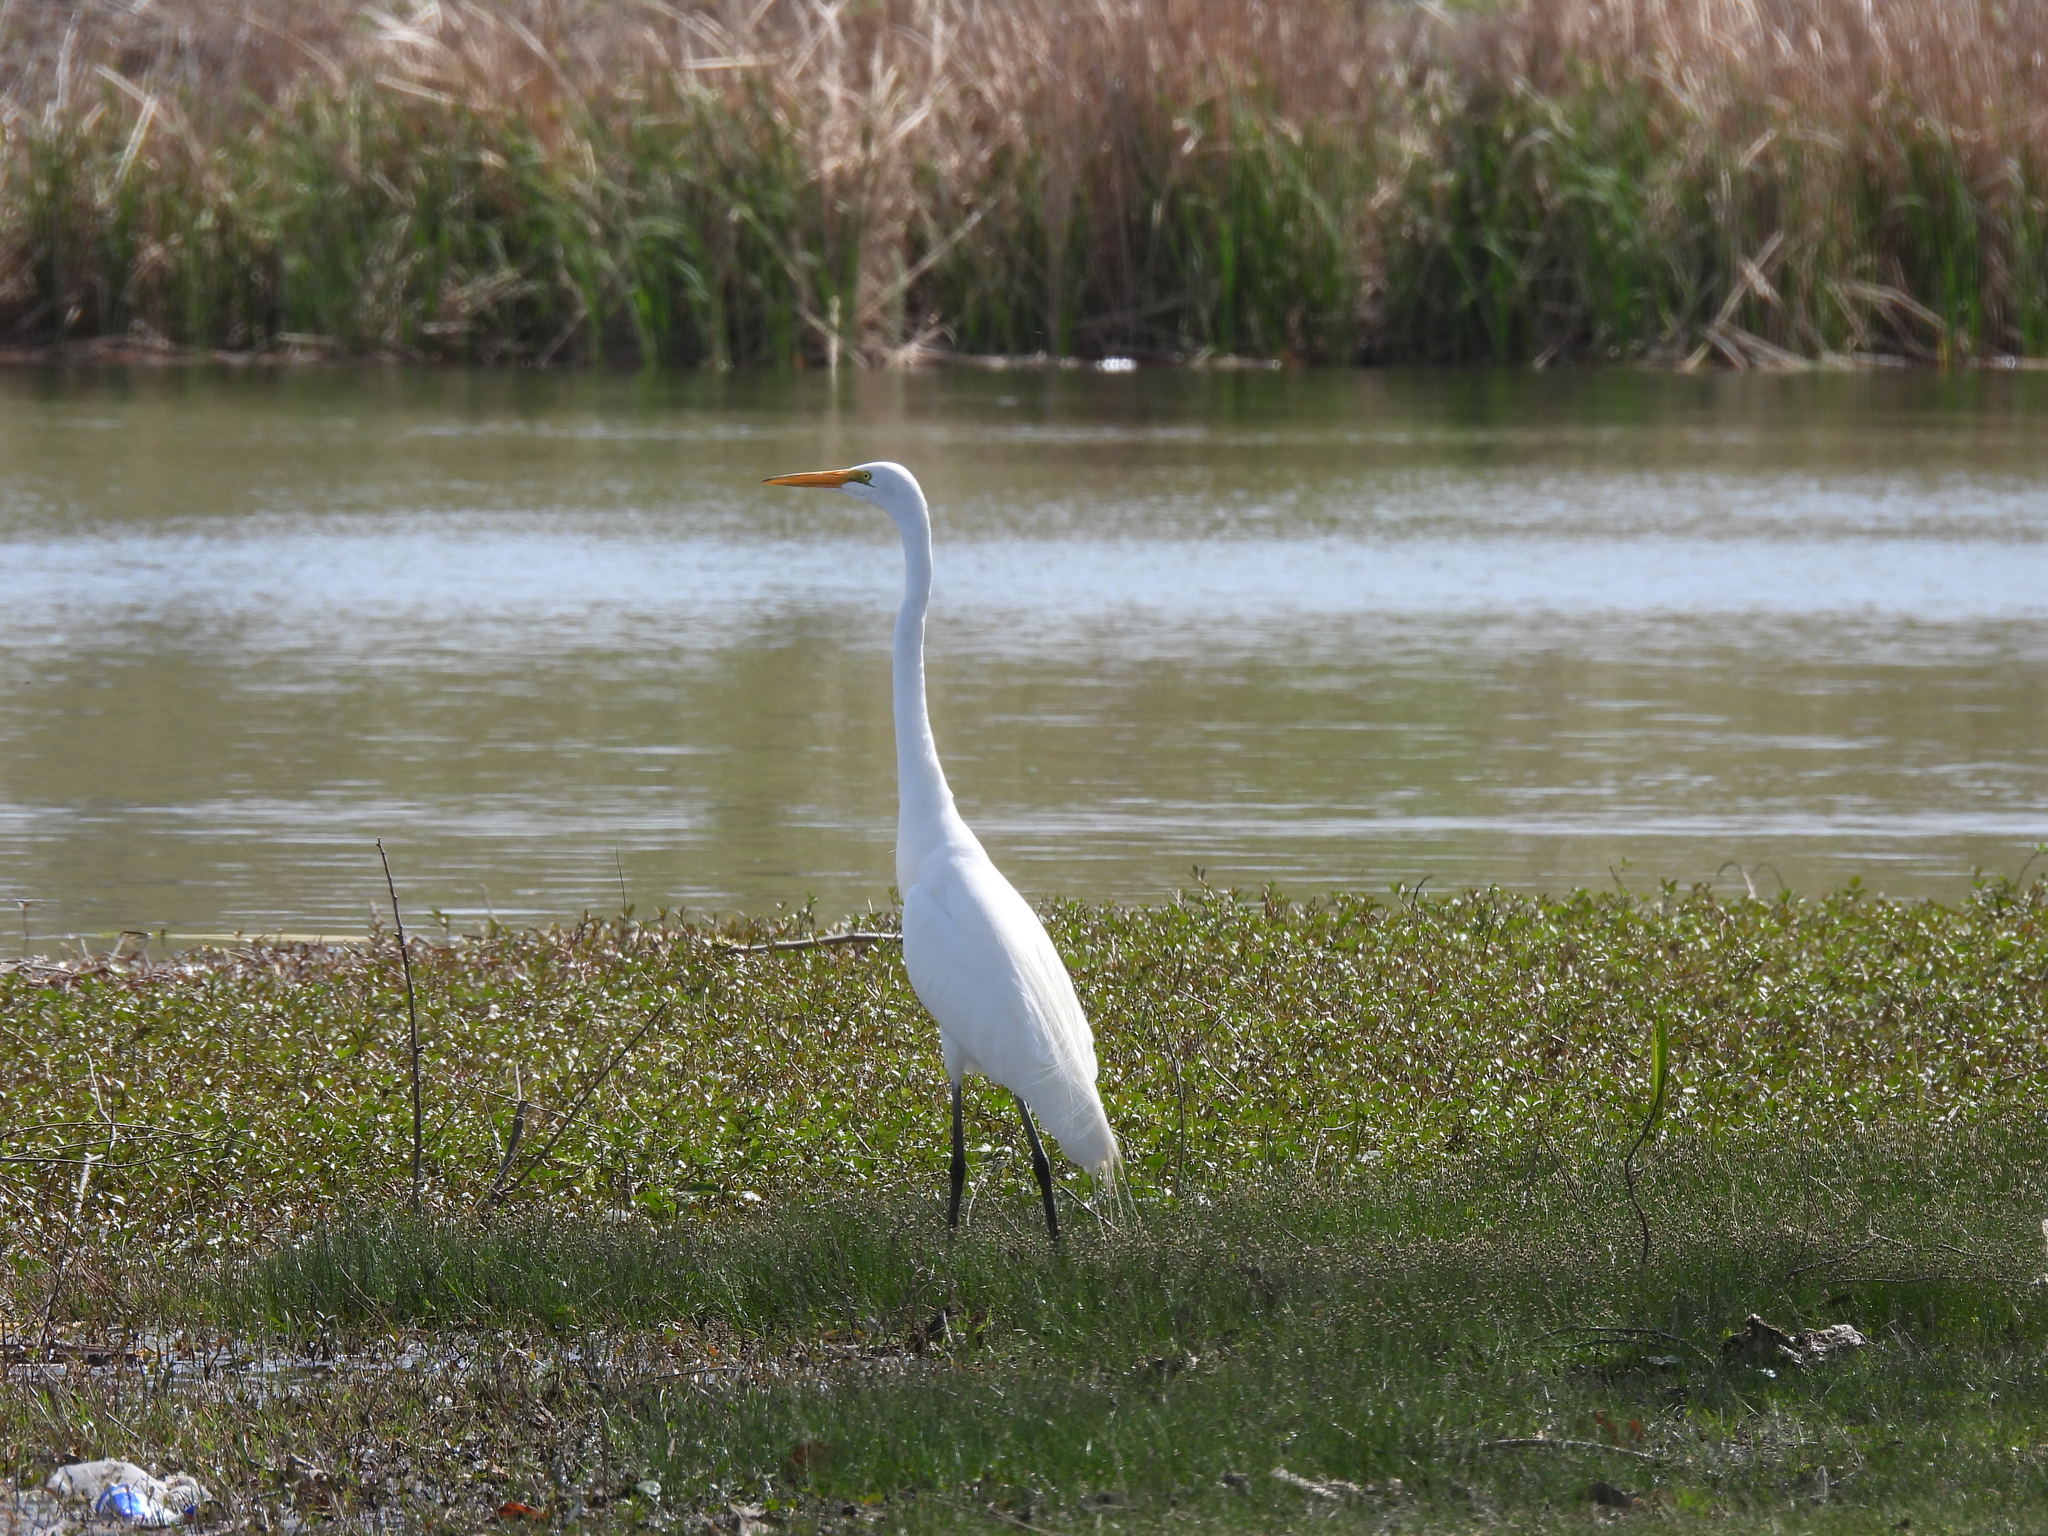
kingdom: Animalia
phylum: Chordata
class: Aves
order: Pelecaniformes
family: Ardeidae
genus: Ardea
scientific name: Ardea alba
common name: Great egret
